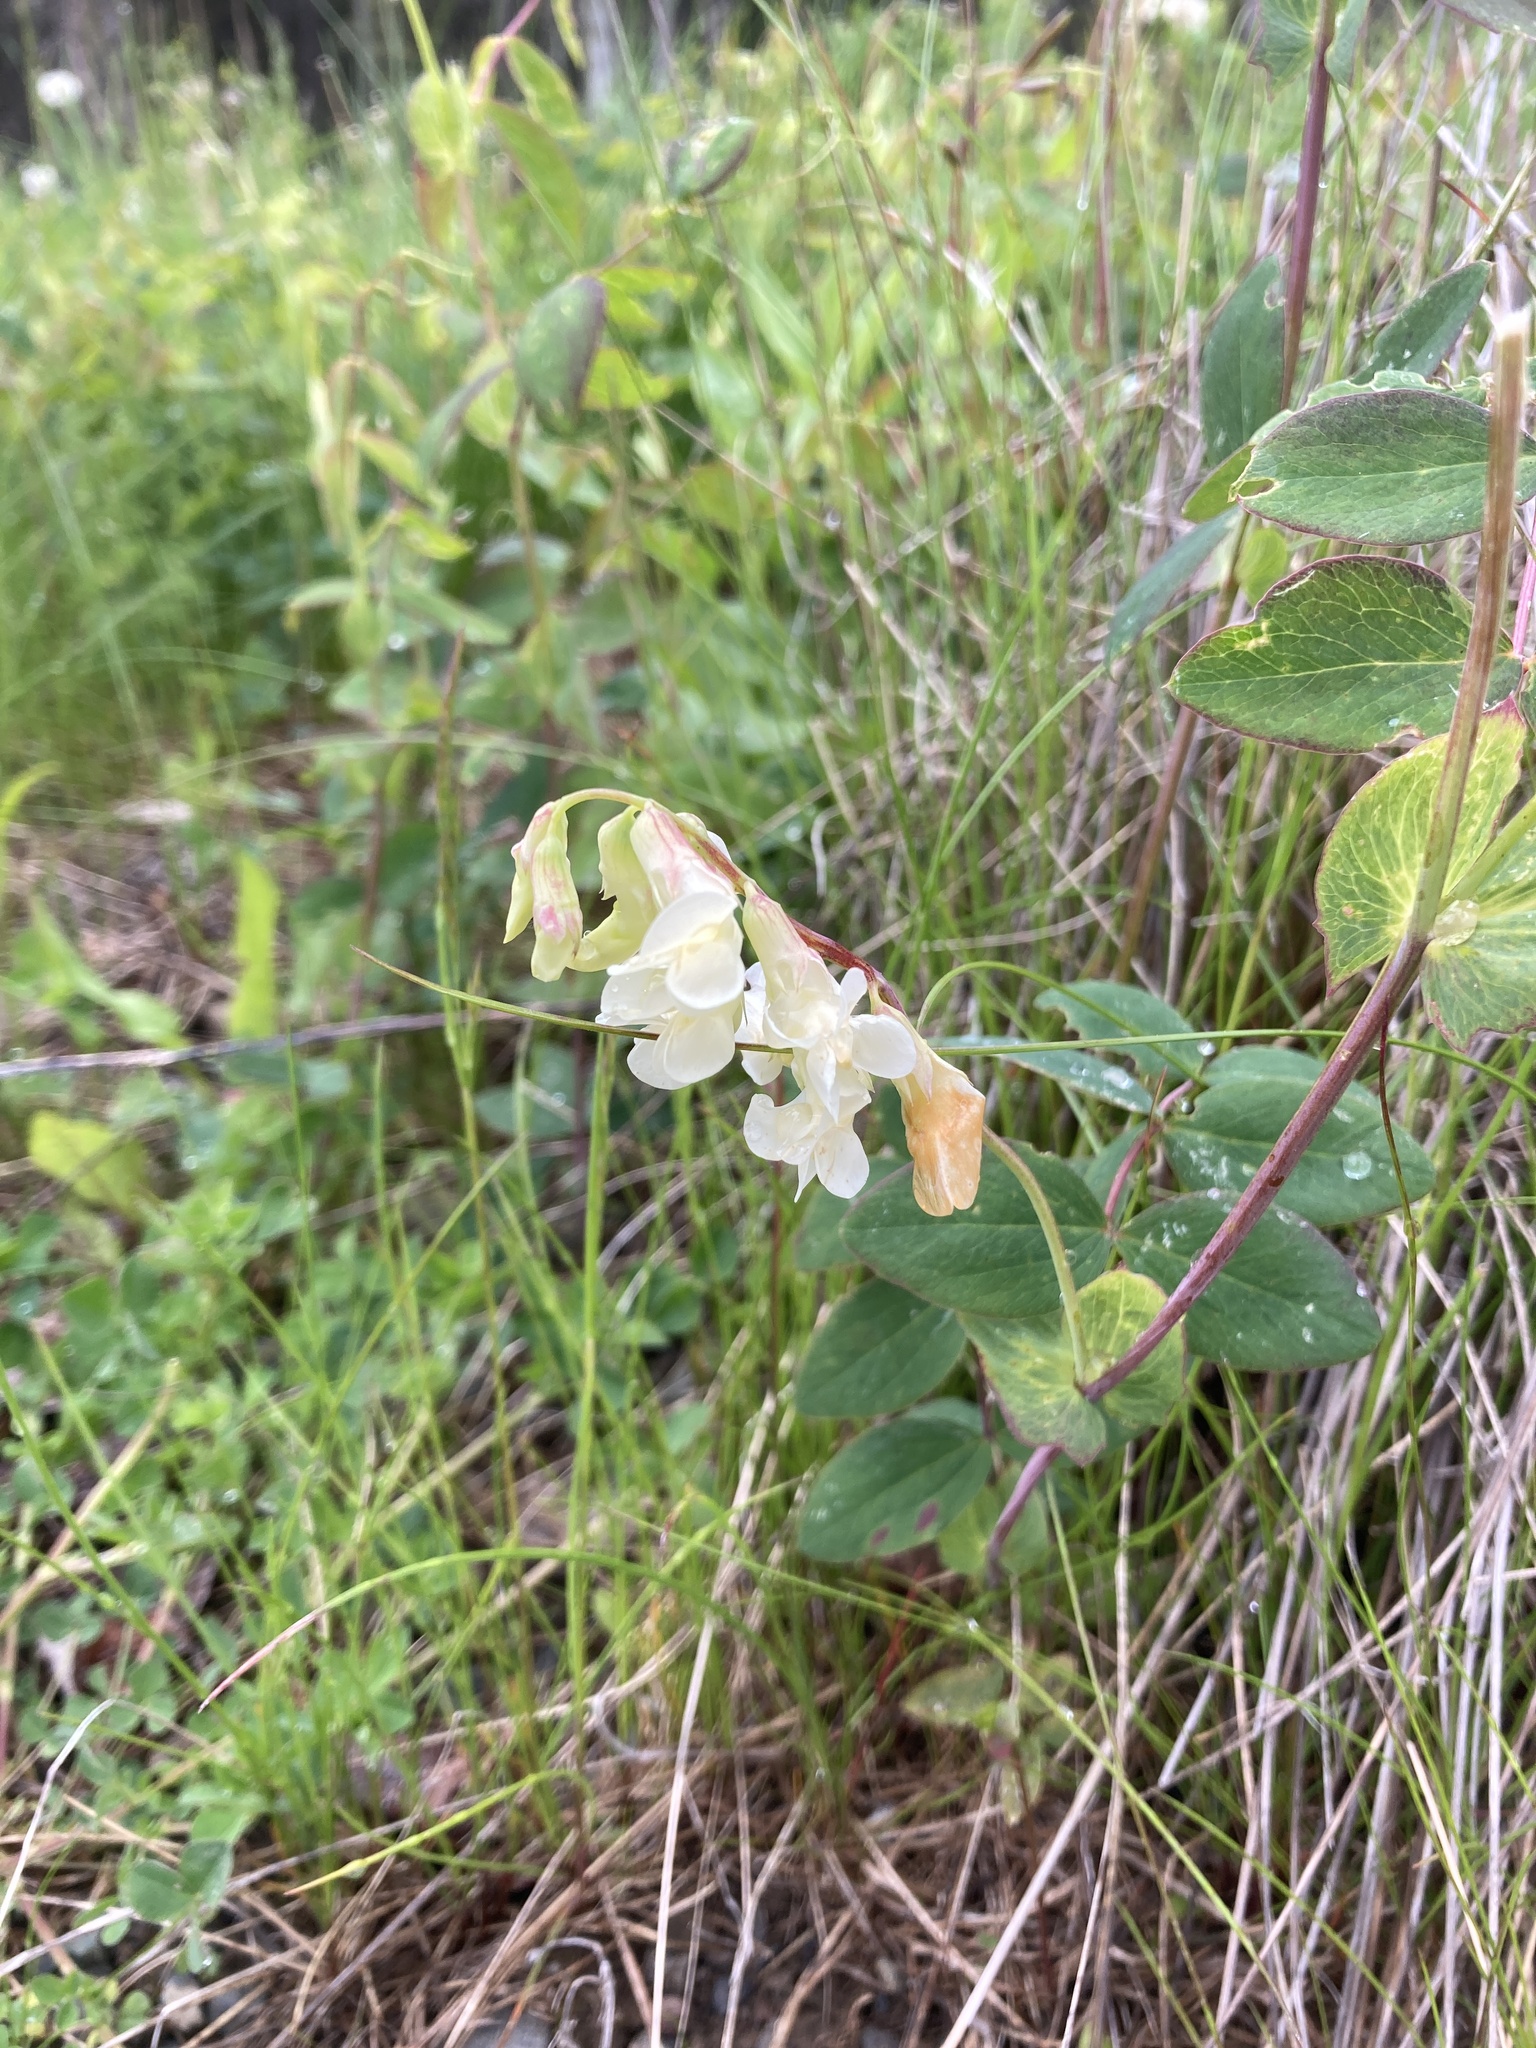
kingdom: Plantae
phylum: Tracheophyta
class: Magnoliopsida
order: Fabales
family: Fabaceae
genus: Lathyrus
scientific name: Lathyrus ochroleucus
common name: Pale vetchling
